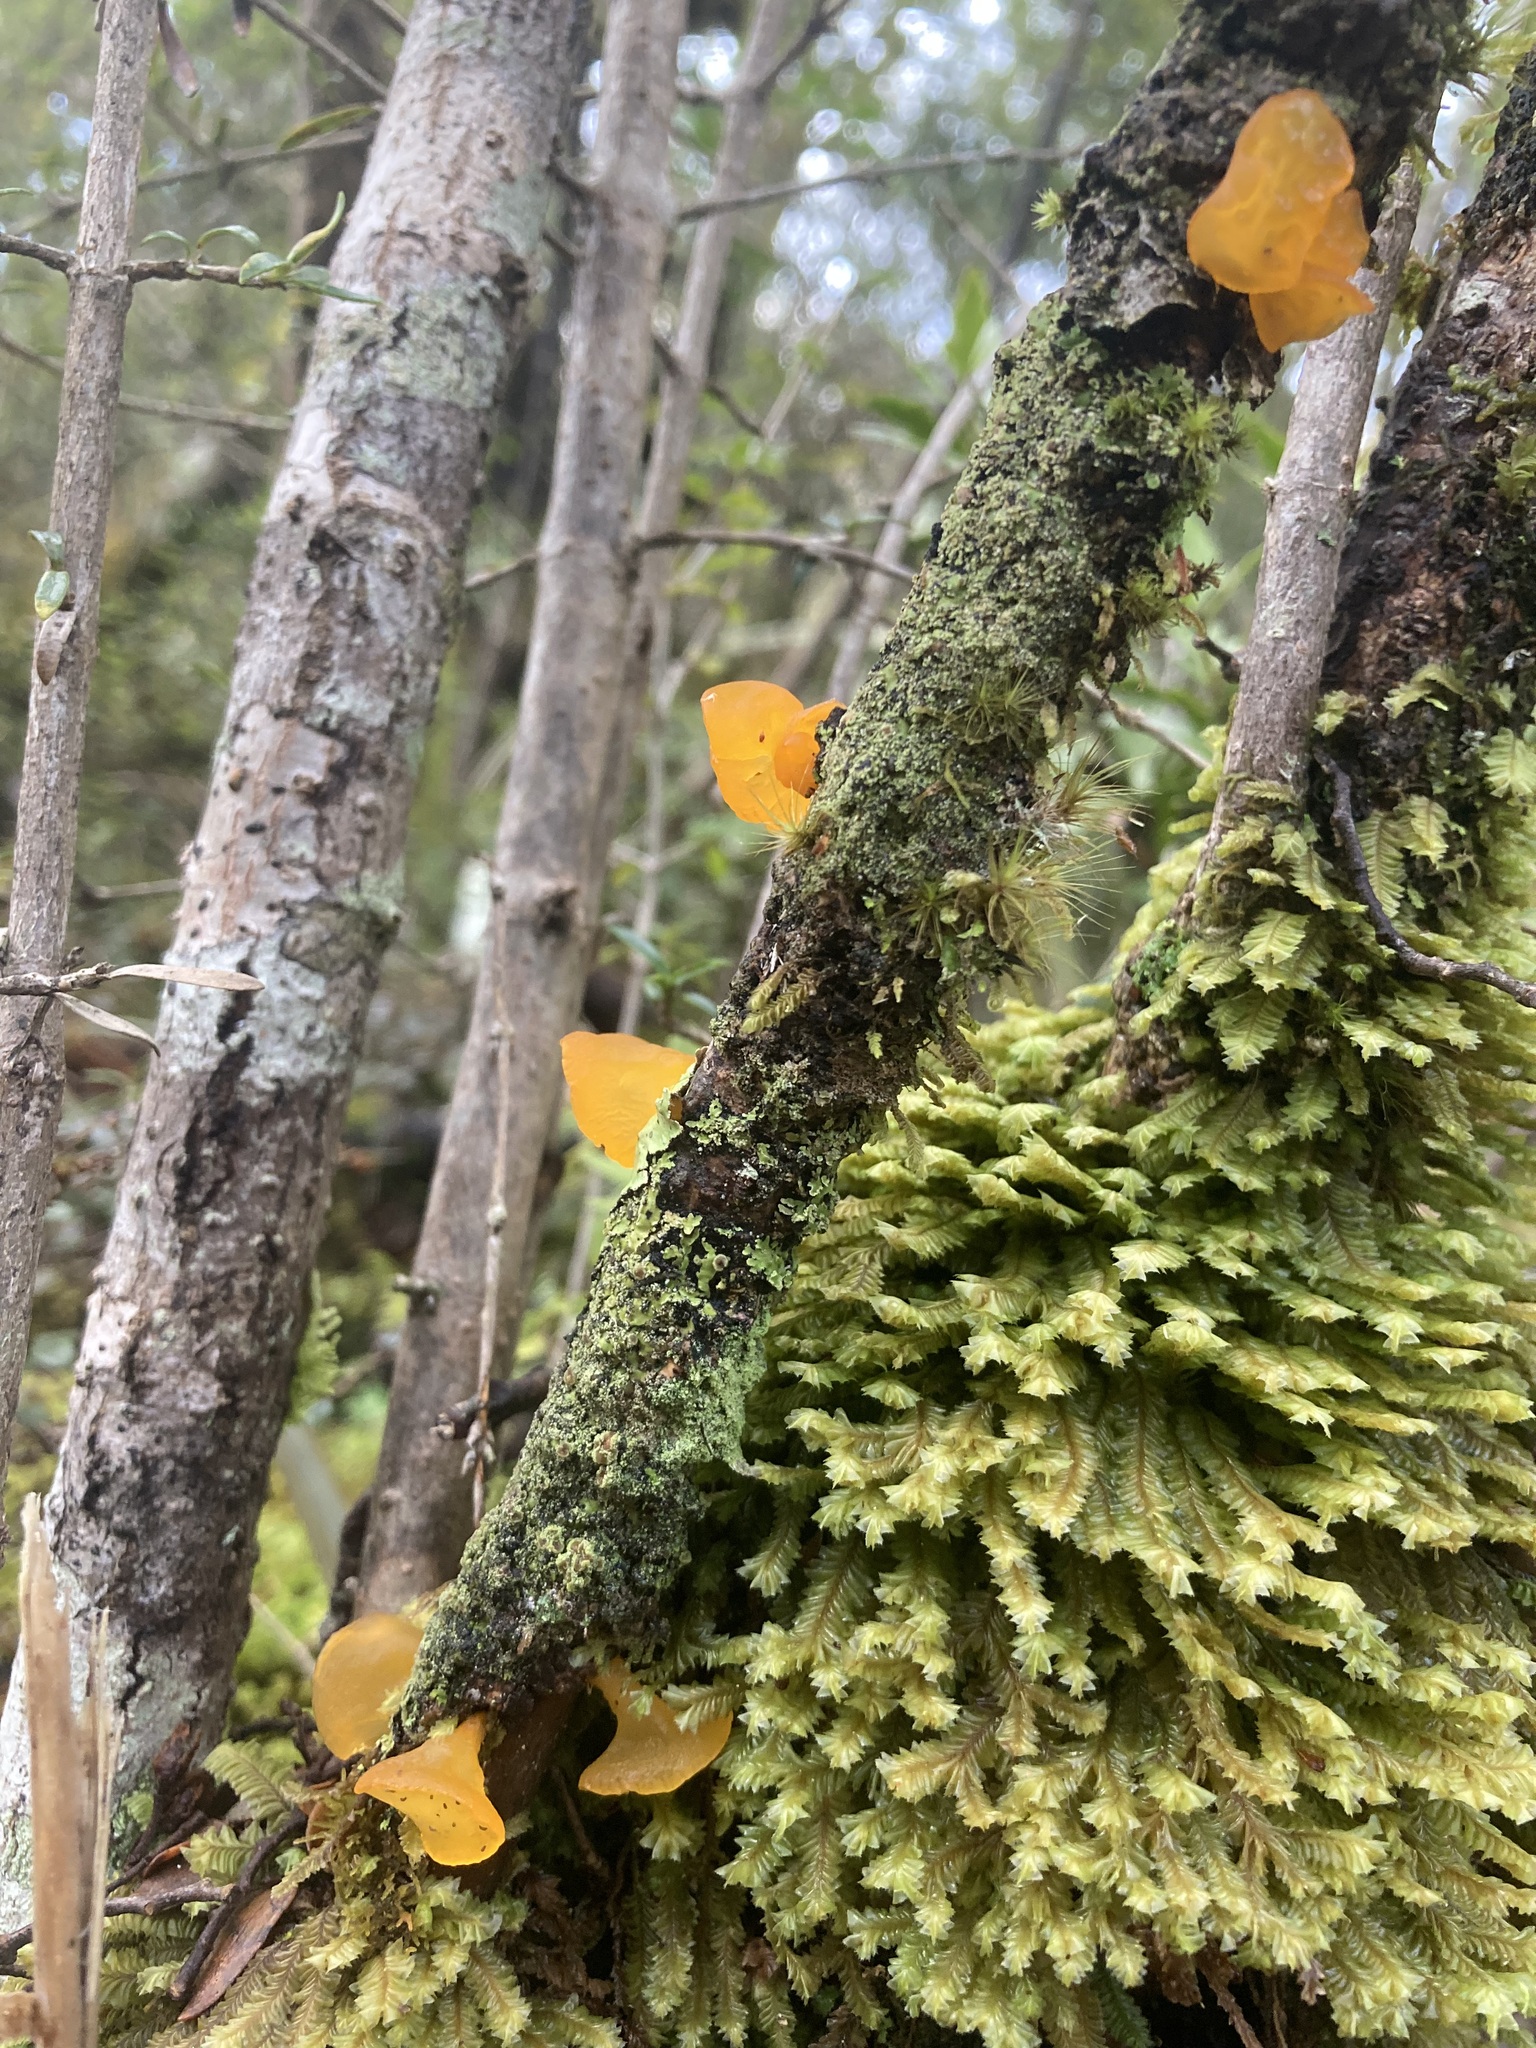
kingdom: Fungi
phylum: Basidiomycota
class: Dacrymycetes
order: Dacrymycetales
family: Dacrymycetaceae
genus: Heterotextus
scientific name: Heterotextus miltinus
